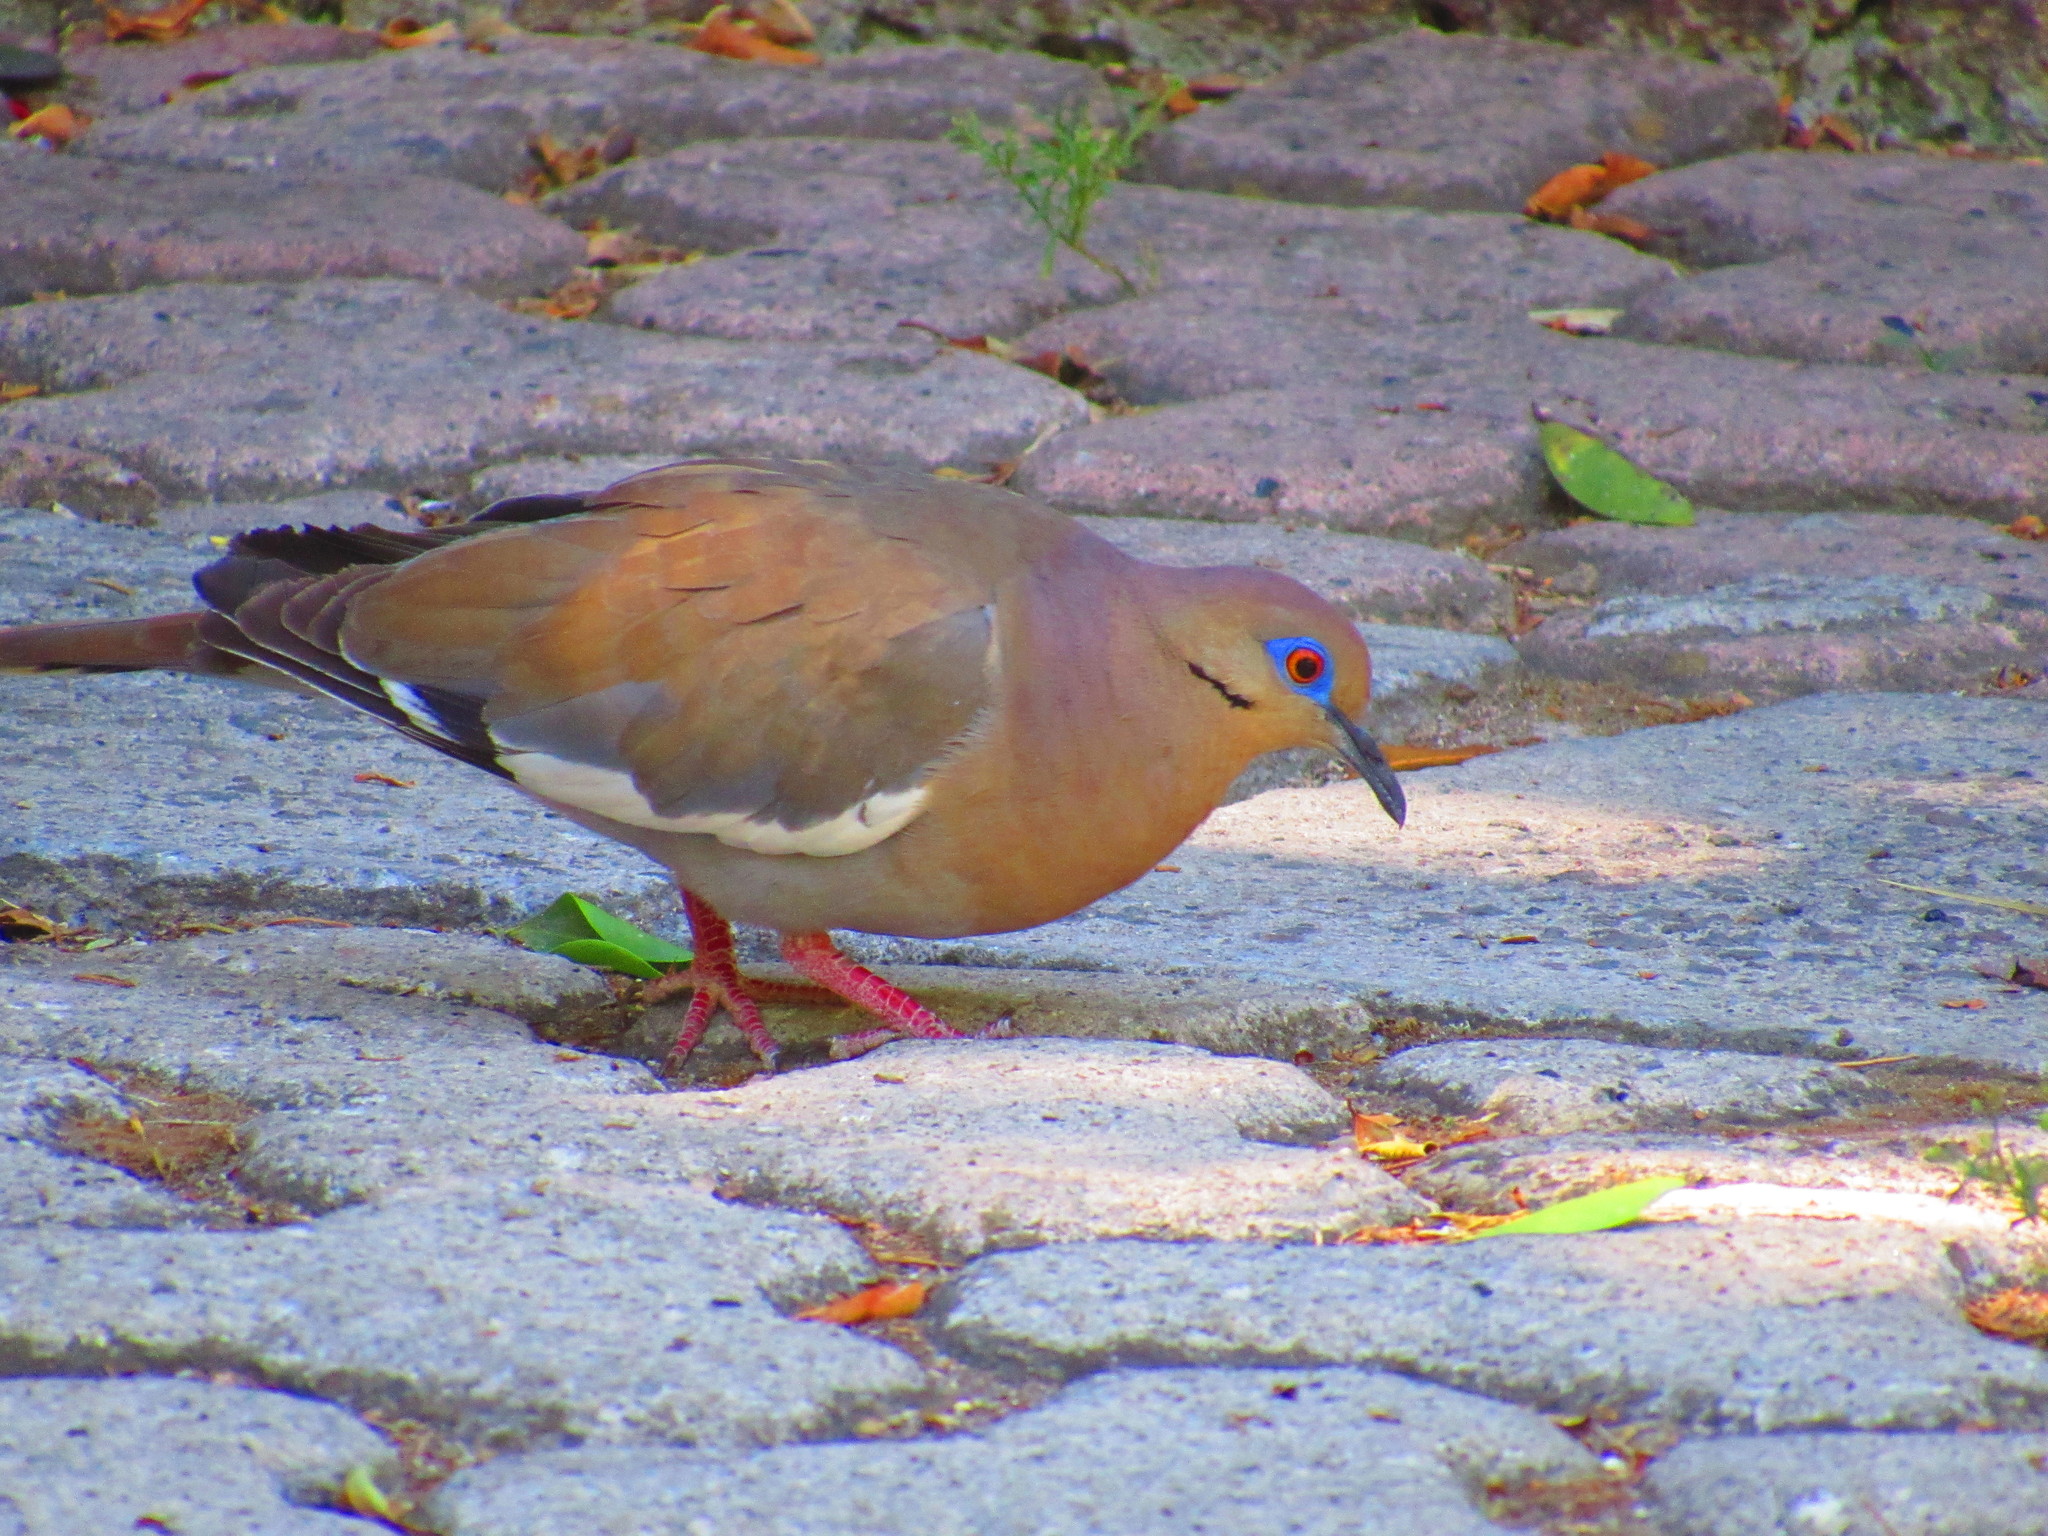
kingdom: Animalia
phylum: Chordata
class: Aves
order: Columbiformes
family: Columbidae
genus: Zenaida
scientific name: Zenaida asiatica
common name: White-winged dove
